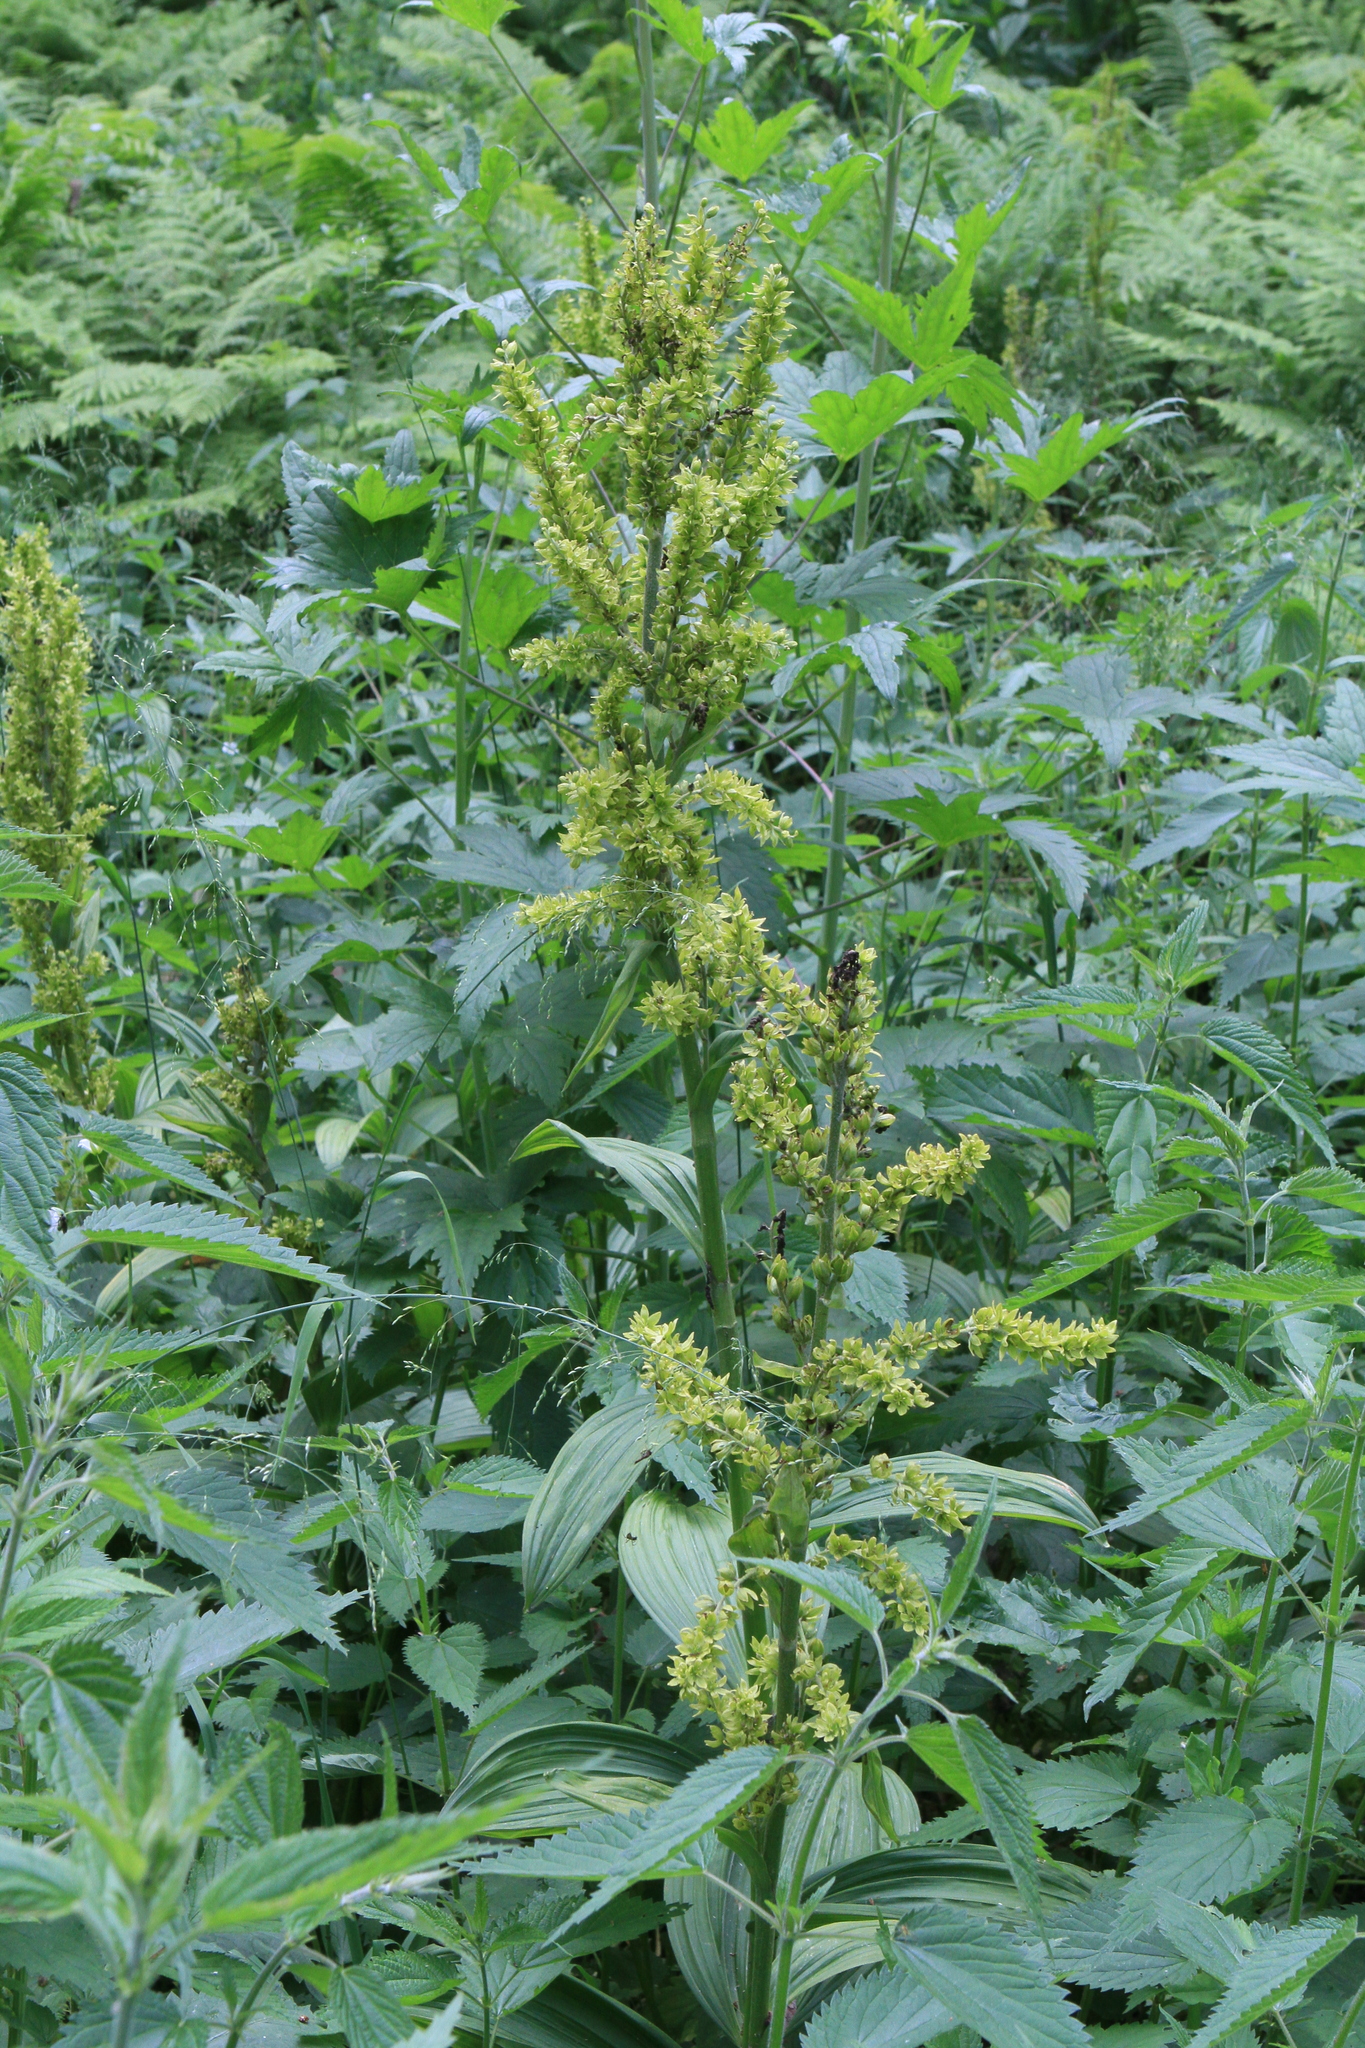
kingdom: Plantae
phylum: Tracheophyta
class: Liliopsida
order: Liliales
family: Melanthiaceae
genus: Veratrum
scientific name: Veratrum lobelianum
